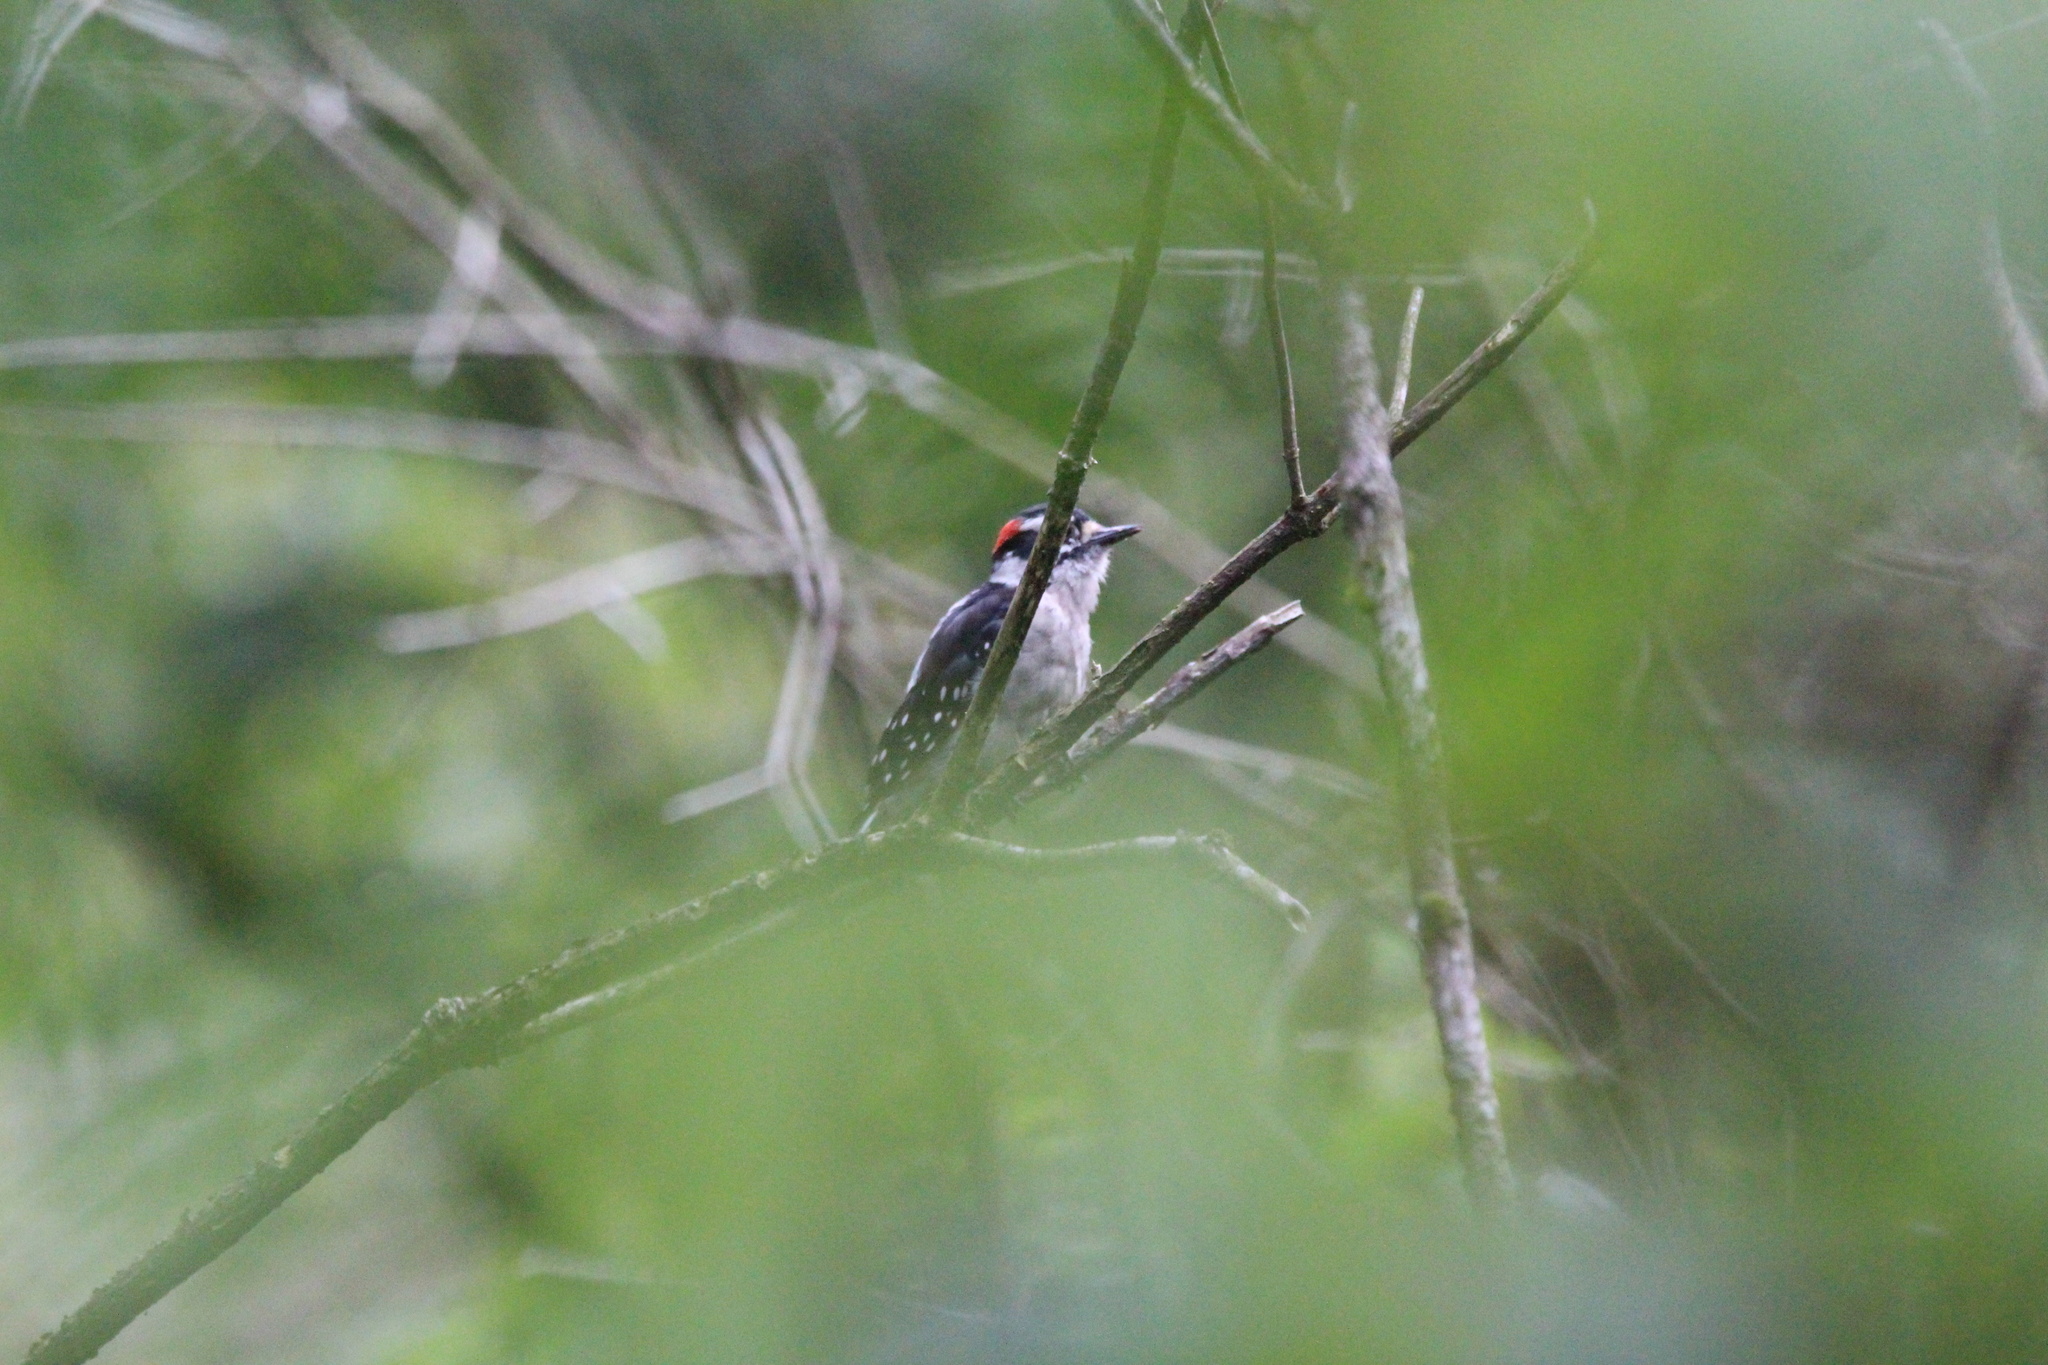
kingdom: Animalia
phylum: Chordata
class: Aves
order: Piciformes
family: Picidae
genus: Dryobates
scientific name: Dryobates pubescens
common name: Downy woodpecker
